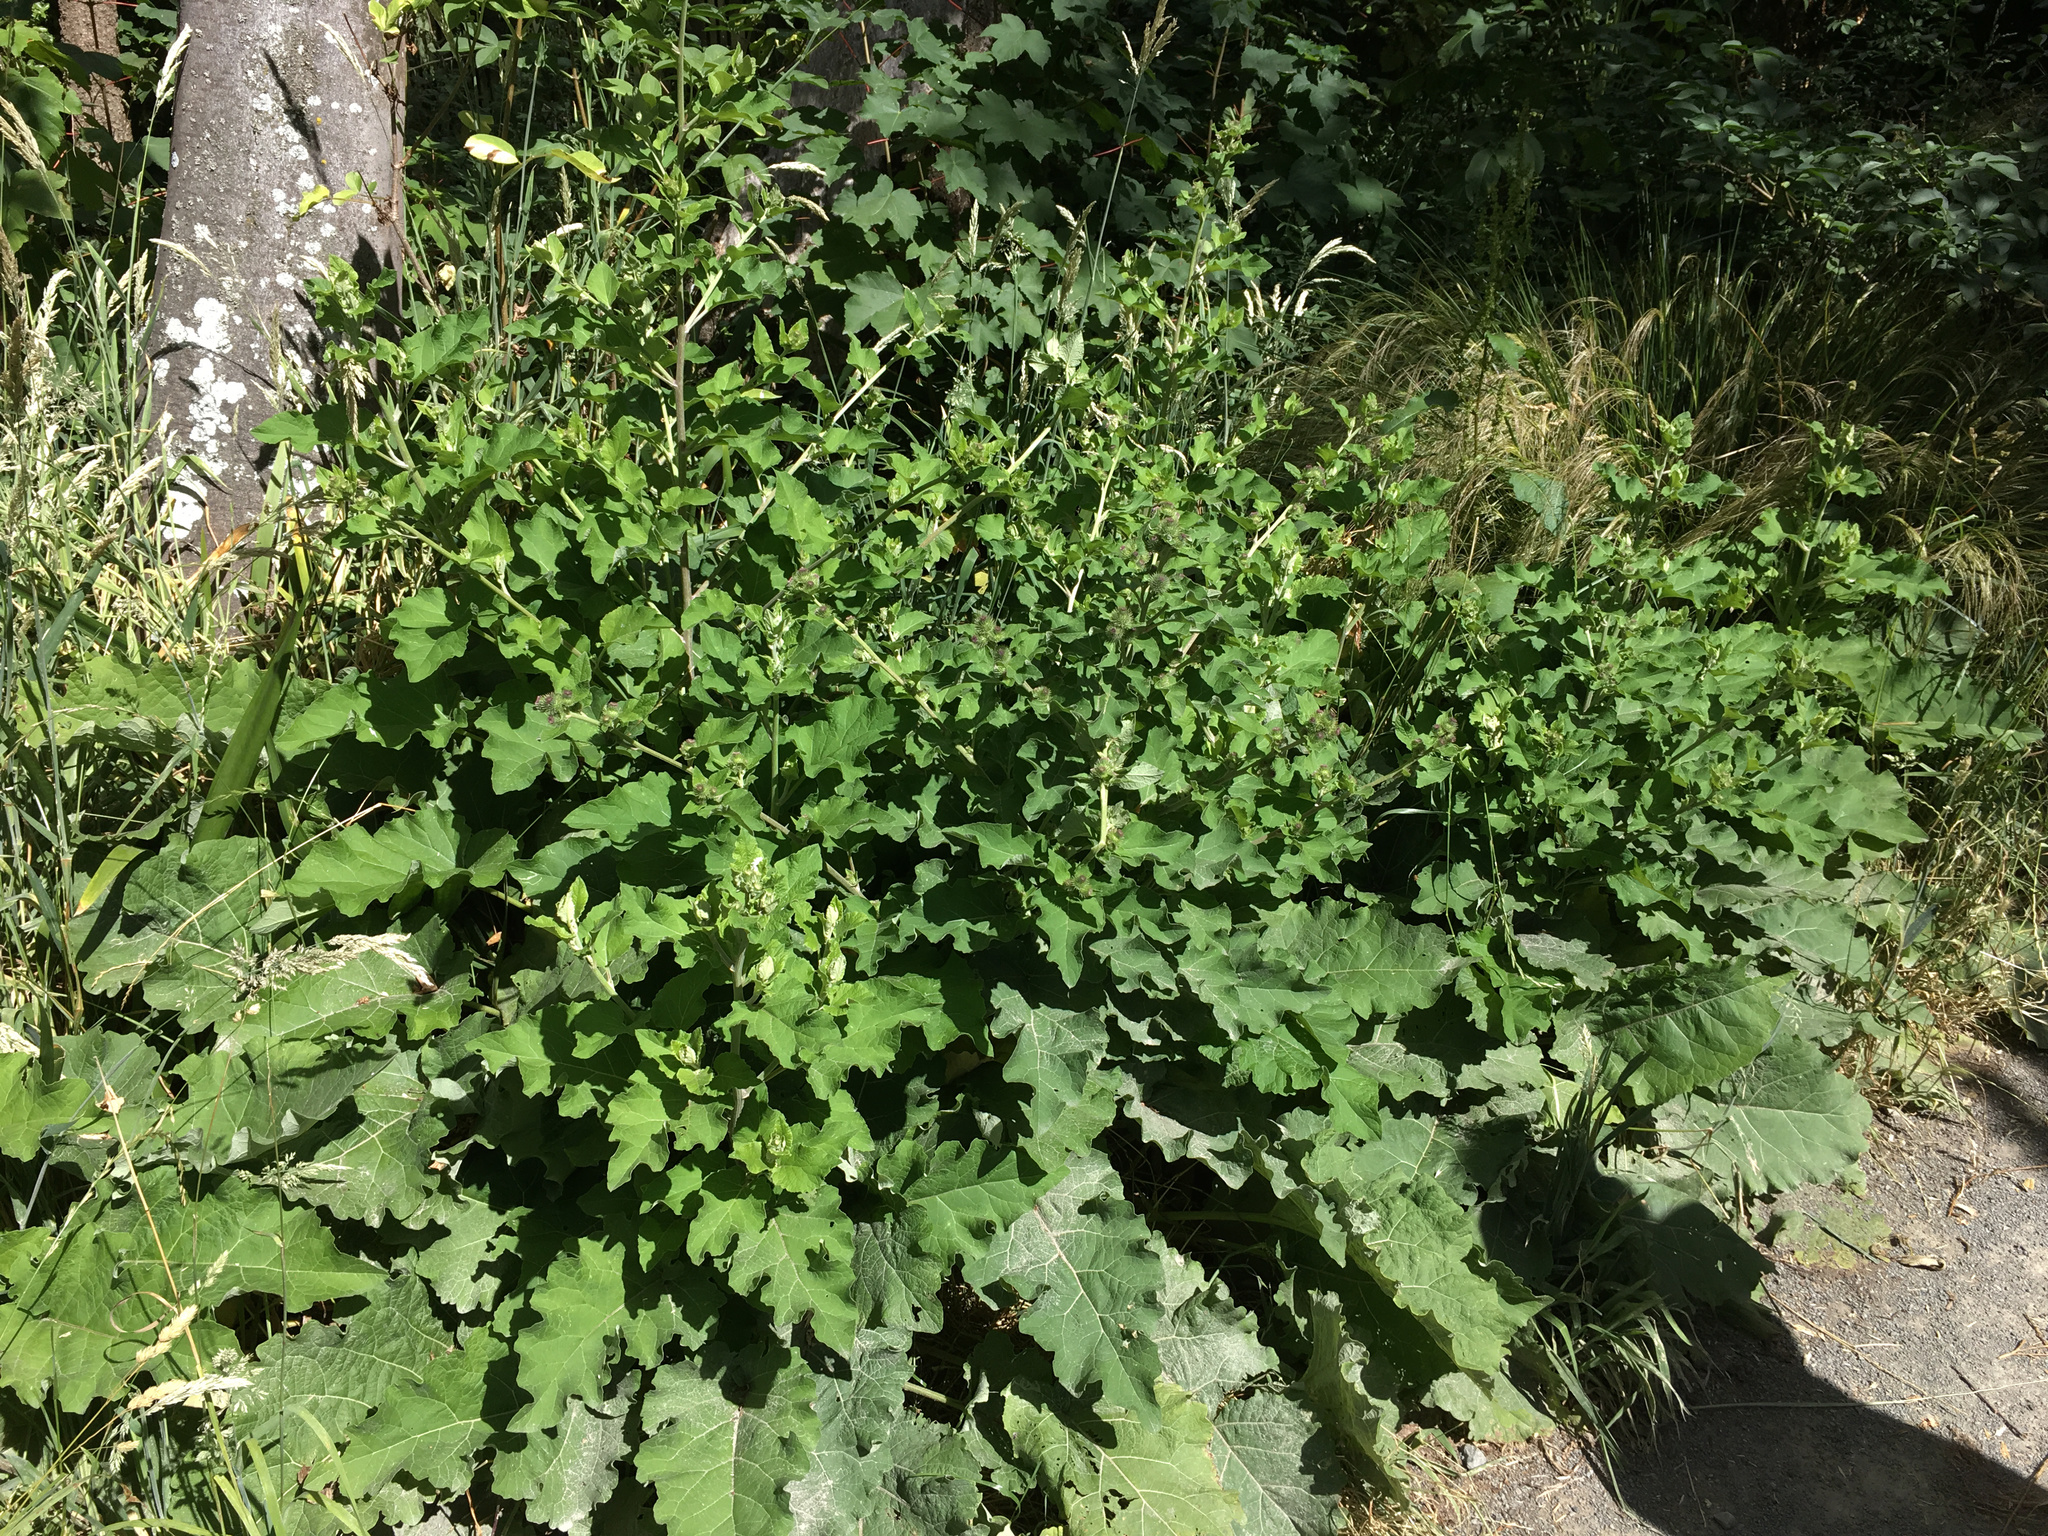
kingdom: Plantae
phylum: Tracheophyta
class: Magnoliopsida
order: Asterales
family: Asteraceae
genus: Arctium
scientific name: Arctium minus
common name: Lesser burdock
